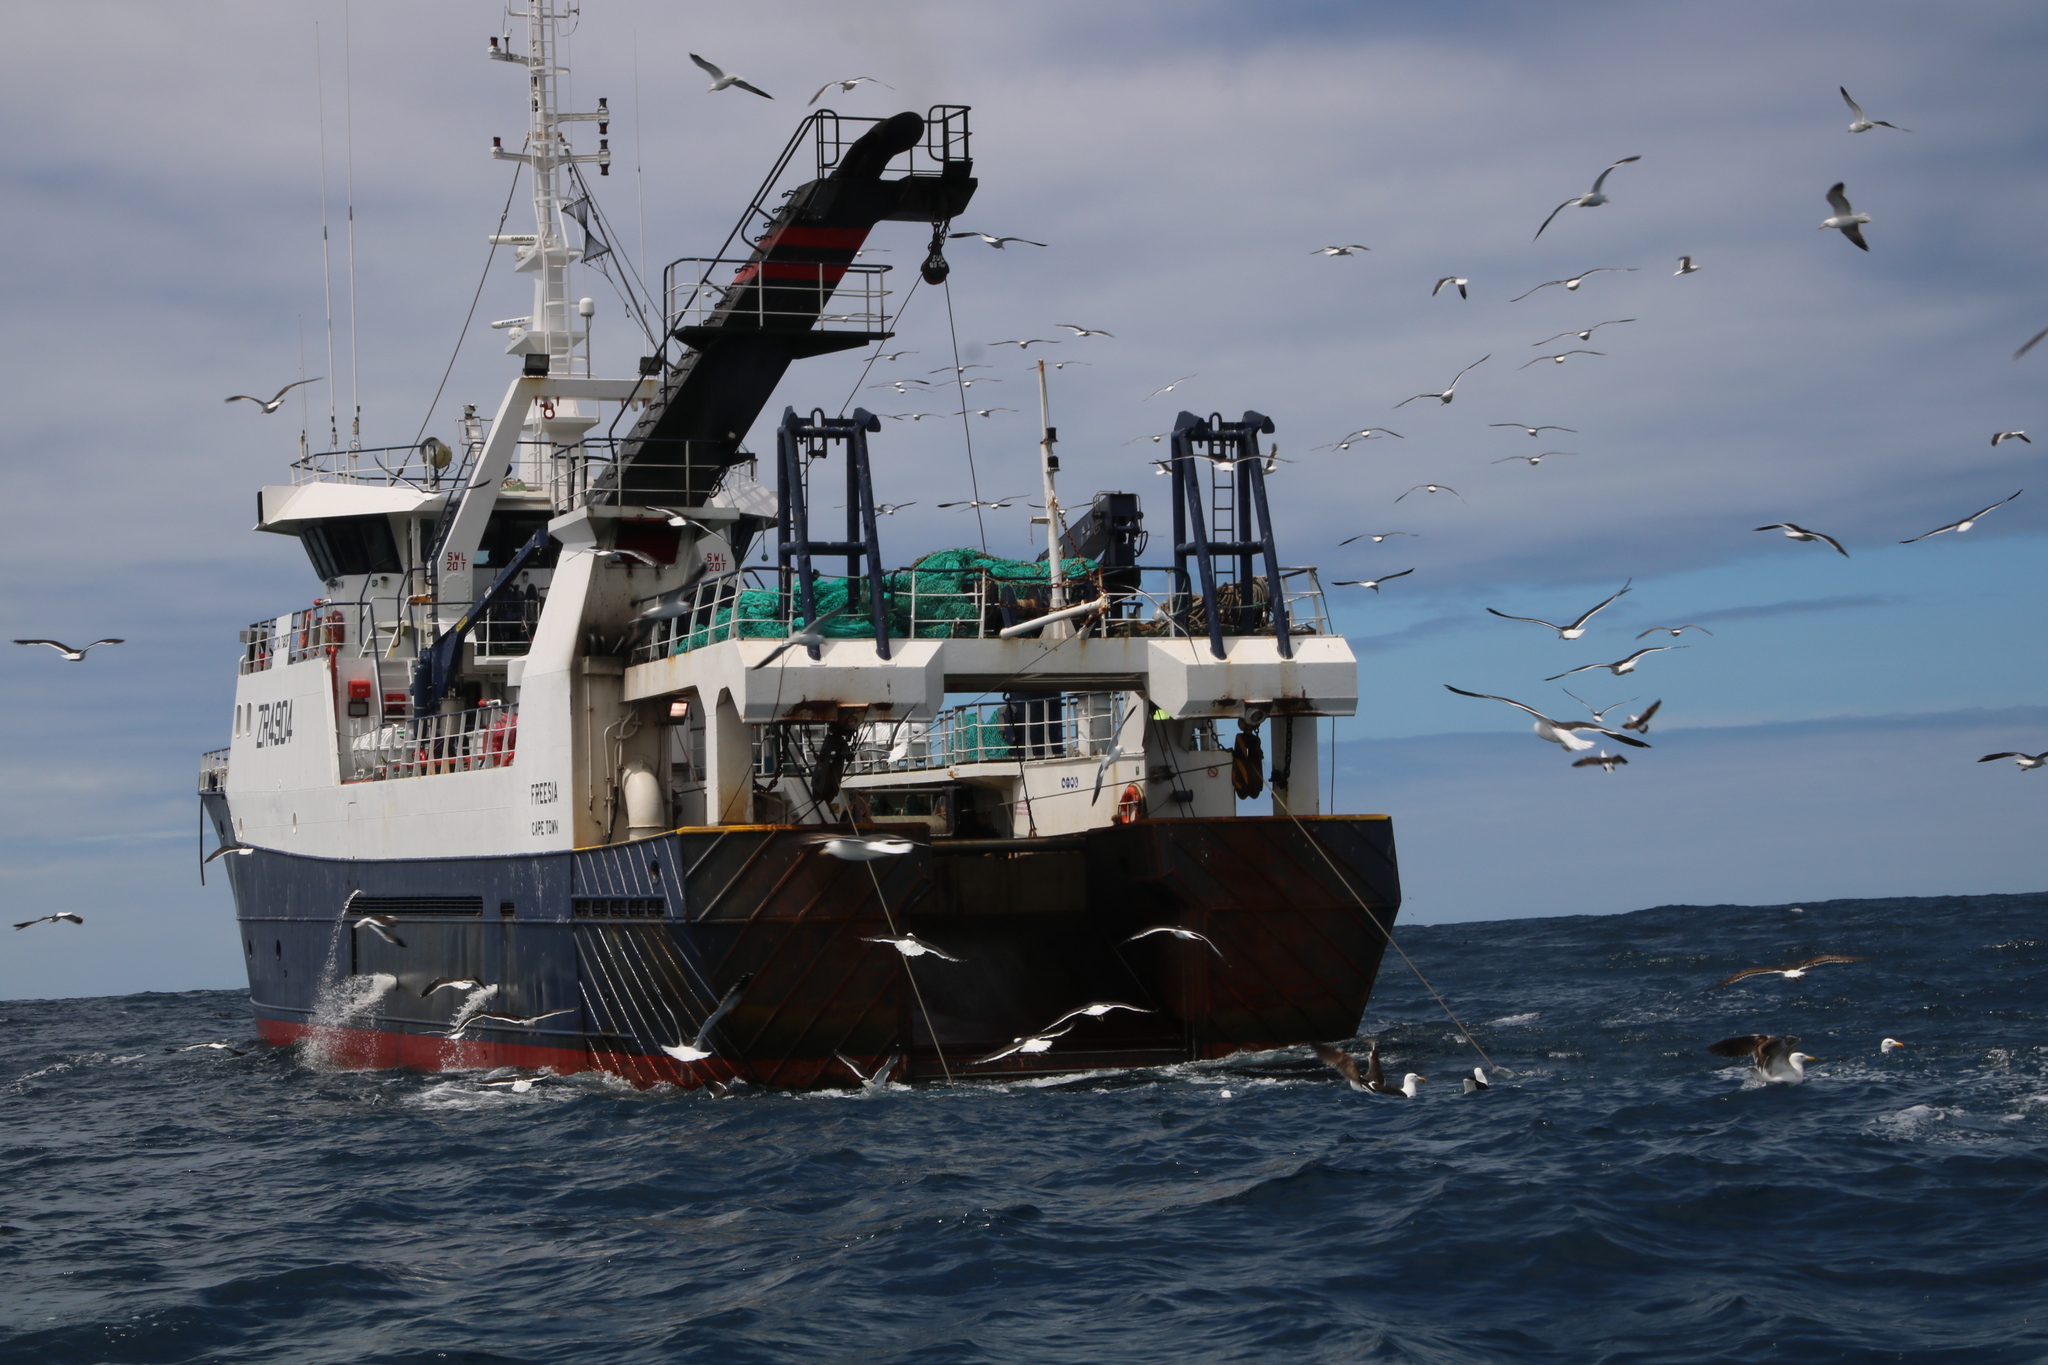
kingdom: Animalia
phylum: Chordata
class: Aves
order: Charadriiformes
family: Laridae
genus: Larus
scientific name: Larus dominicanus
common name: Kelp gull
